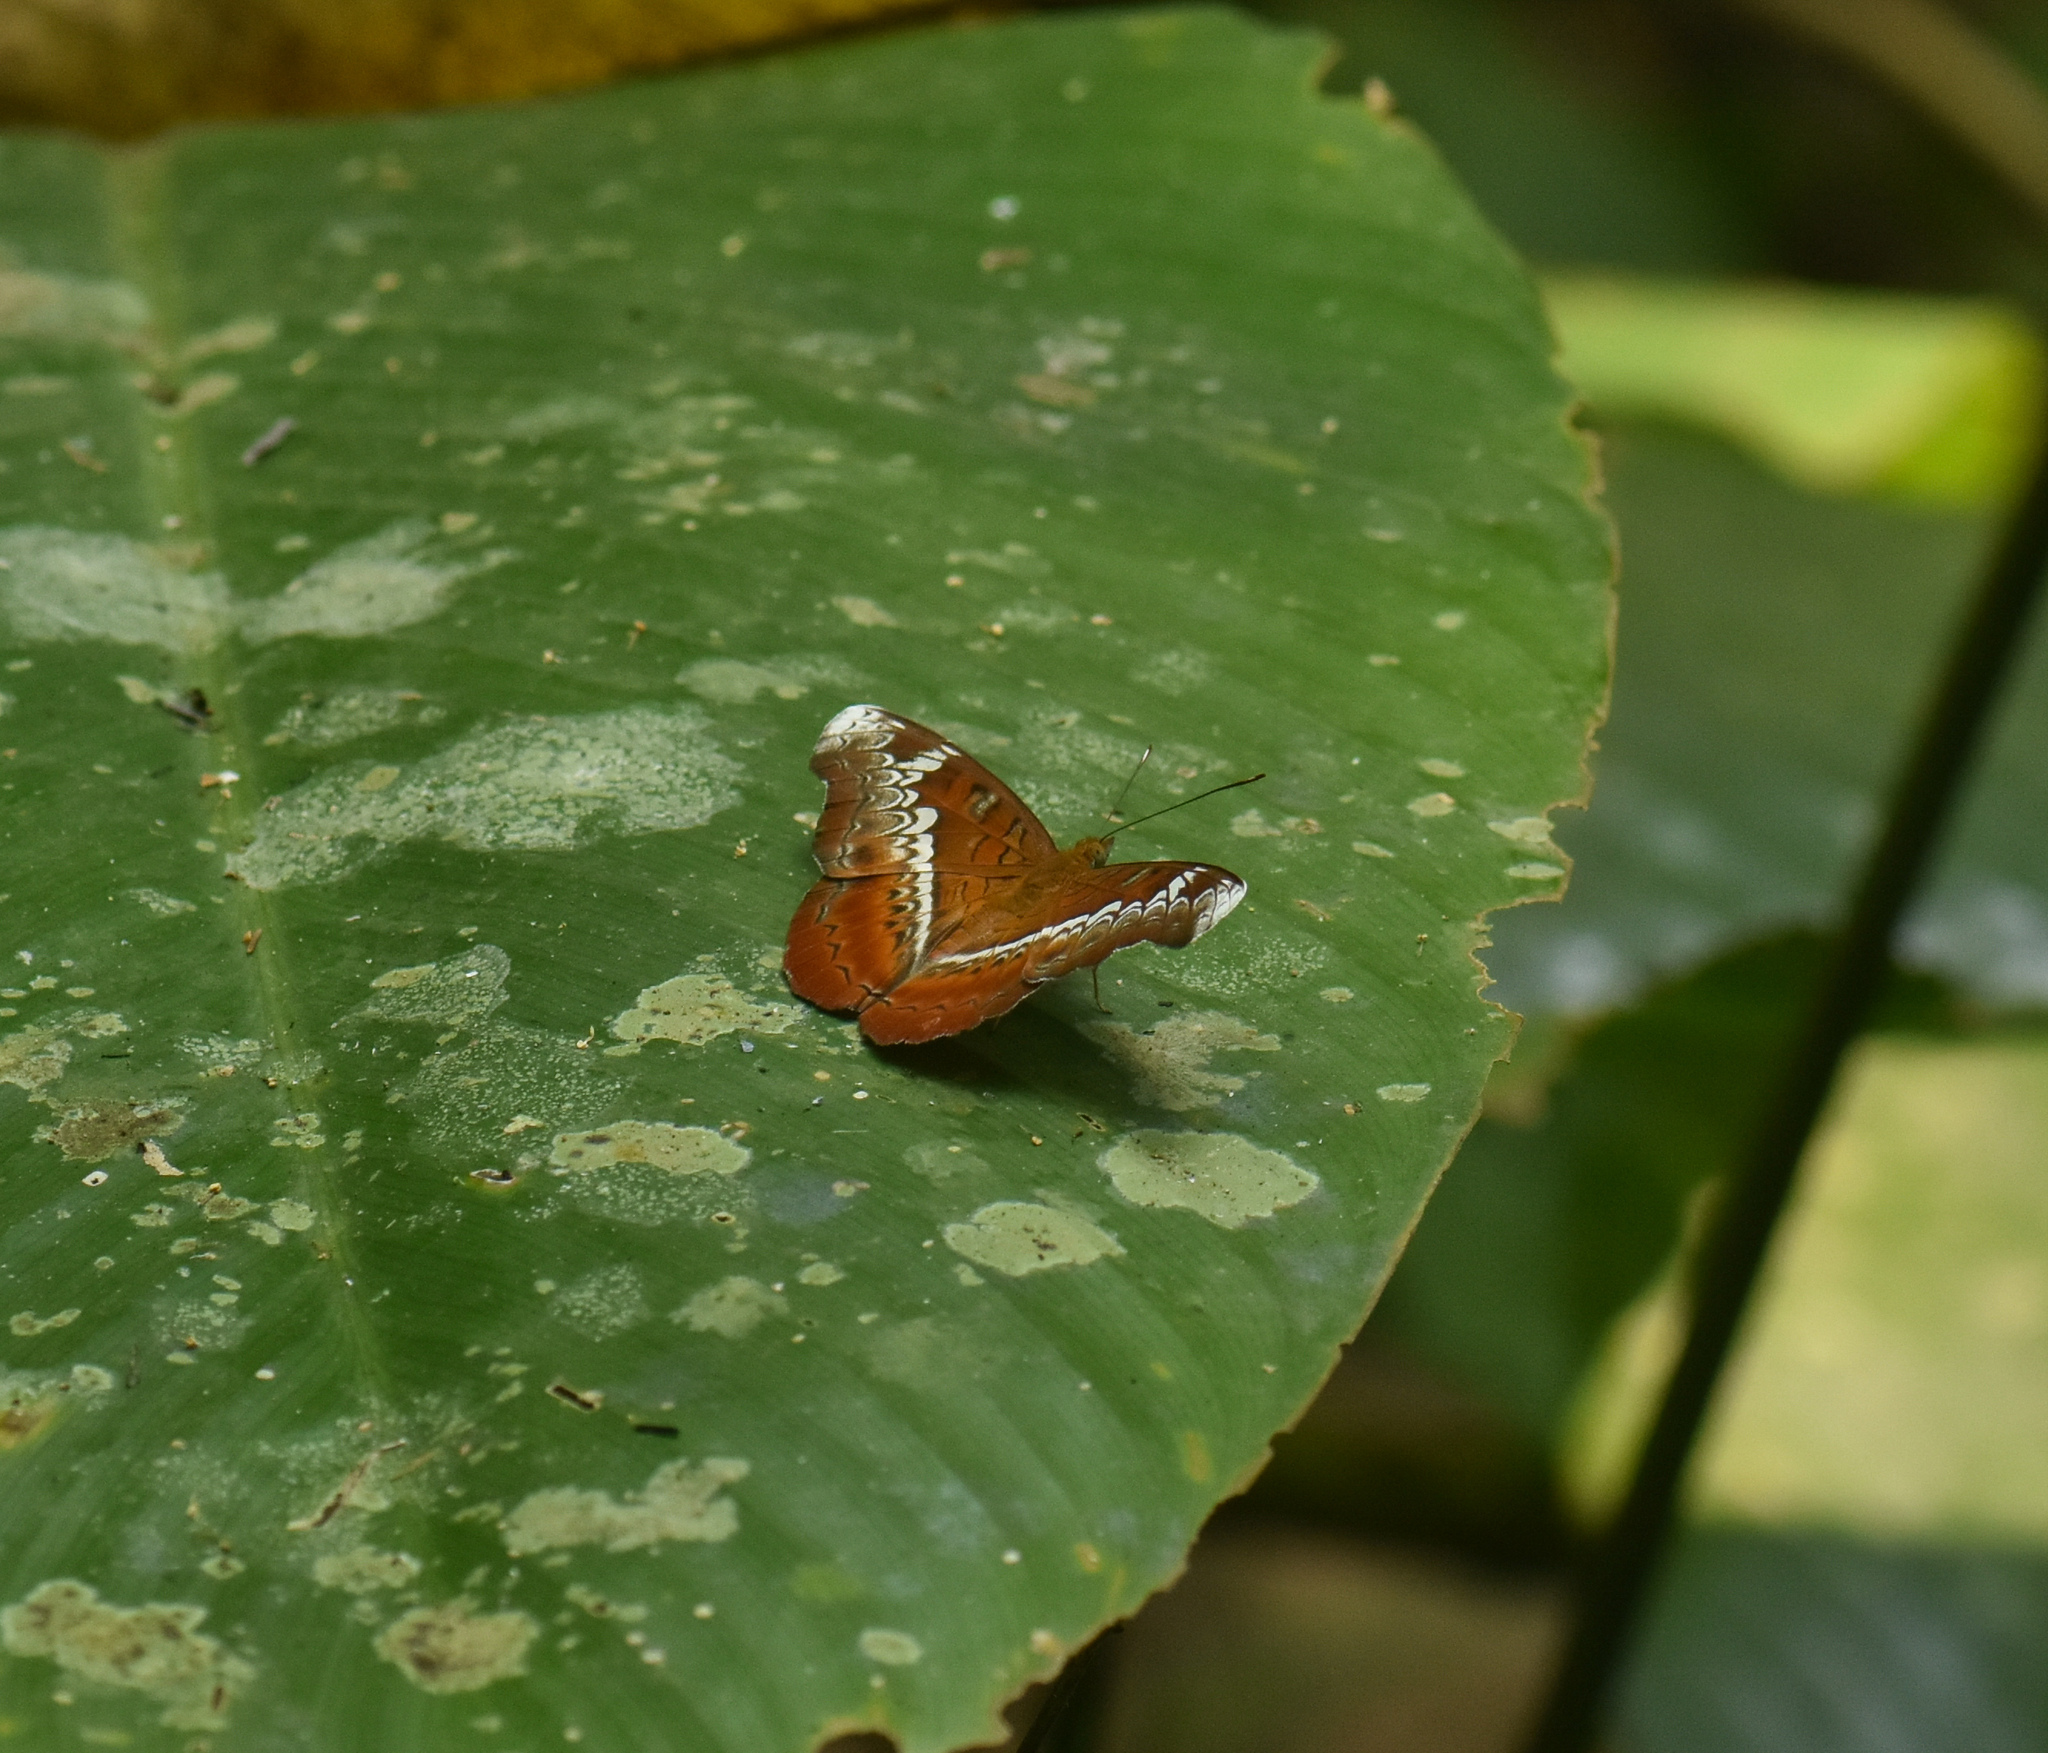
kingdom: Animalia
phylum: Arthropoda
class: Insecta
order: Lepidoptera
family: Nymphalidae
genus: Lebadea
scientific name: Lebadea martha
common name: Knight
